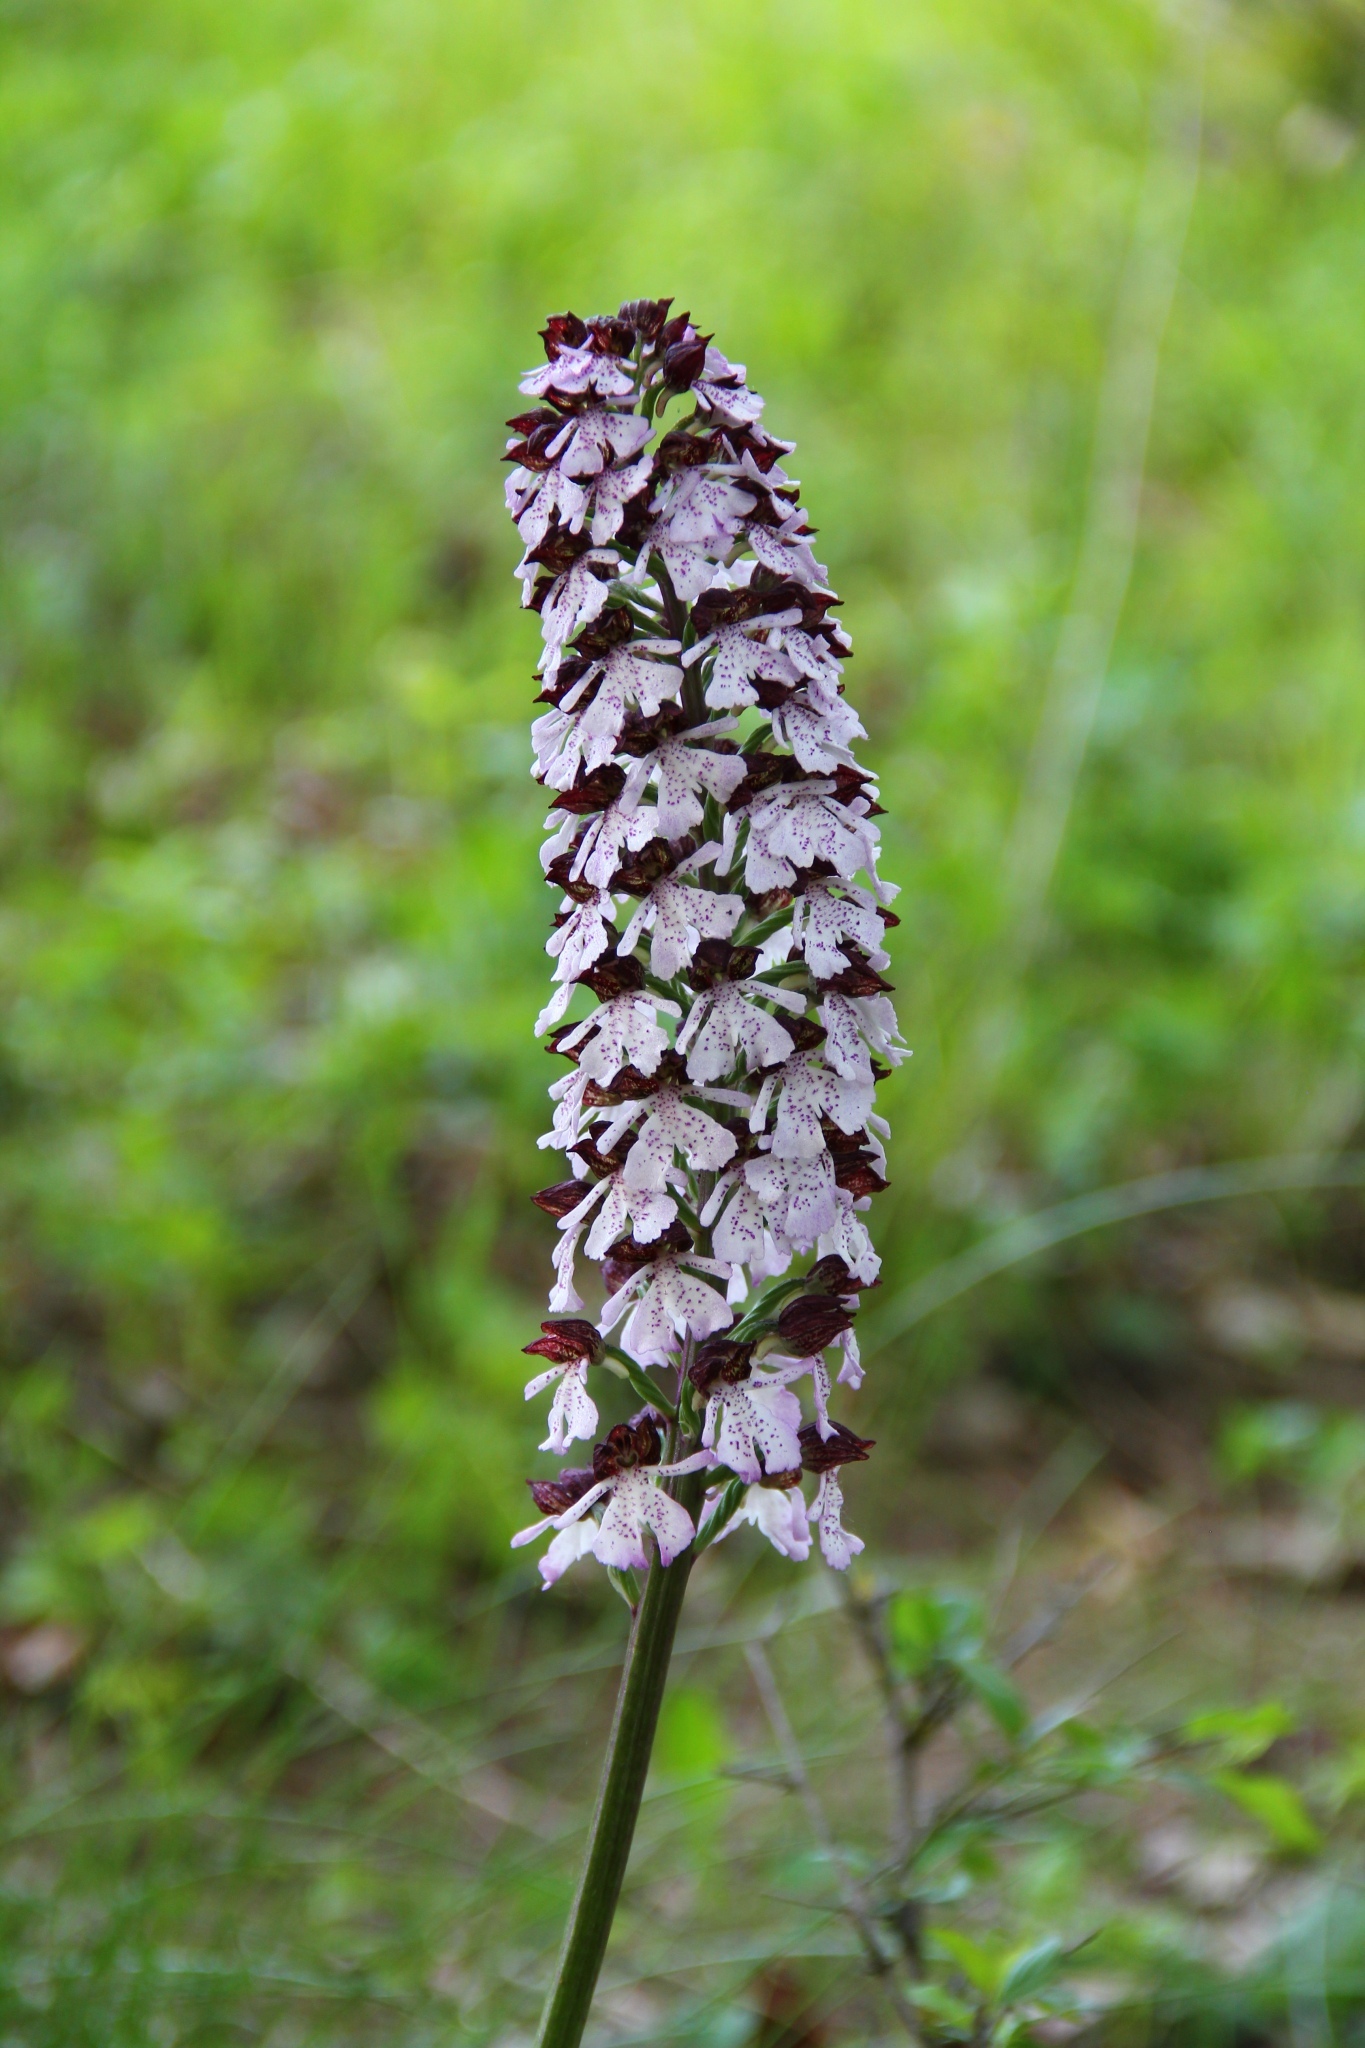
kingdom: Plantae
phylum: Tracheophyta
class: Liliopsida
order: Asparagales
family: Orchidaceae
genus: Orchis
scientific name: Orchis purpurea
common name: Lady orchid
